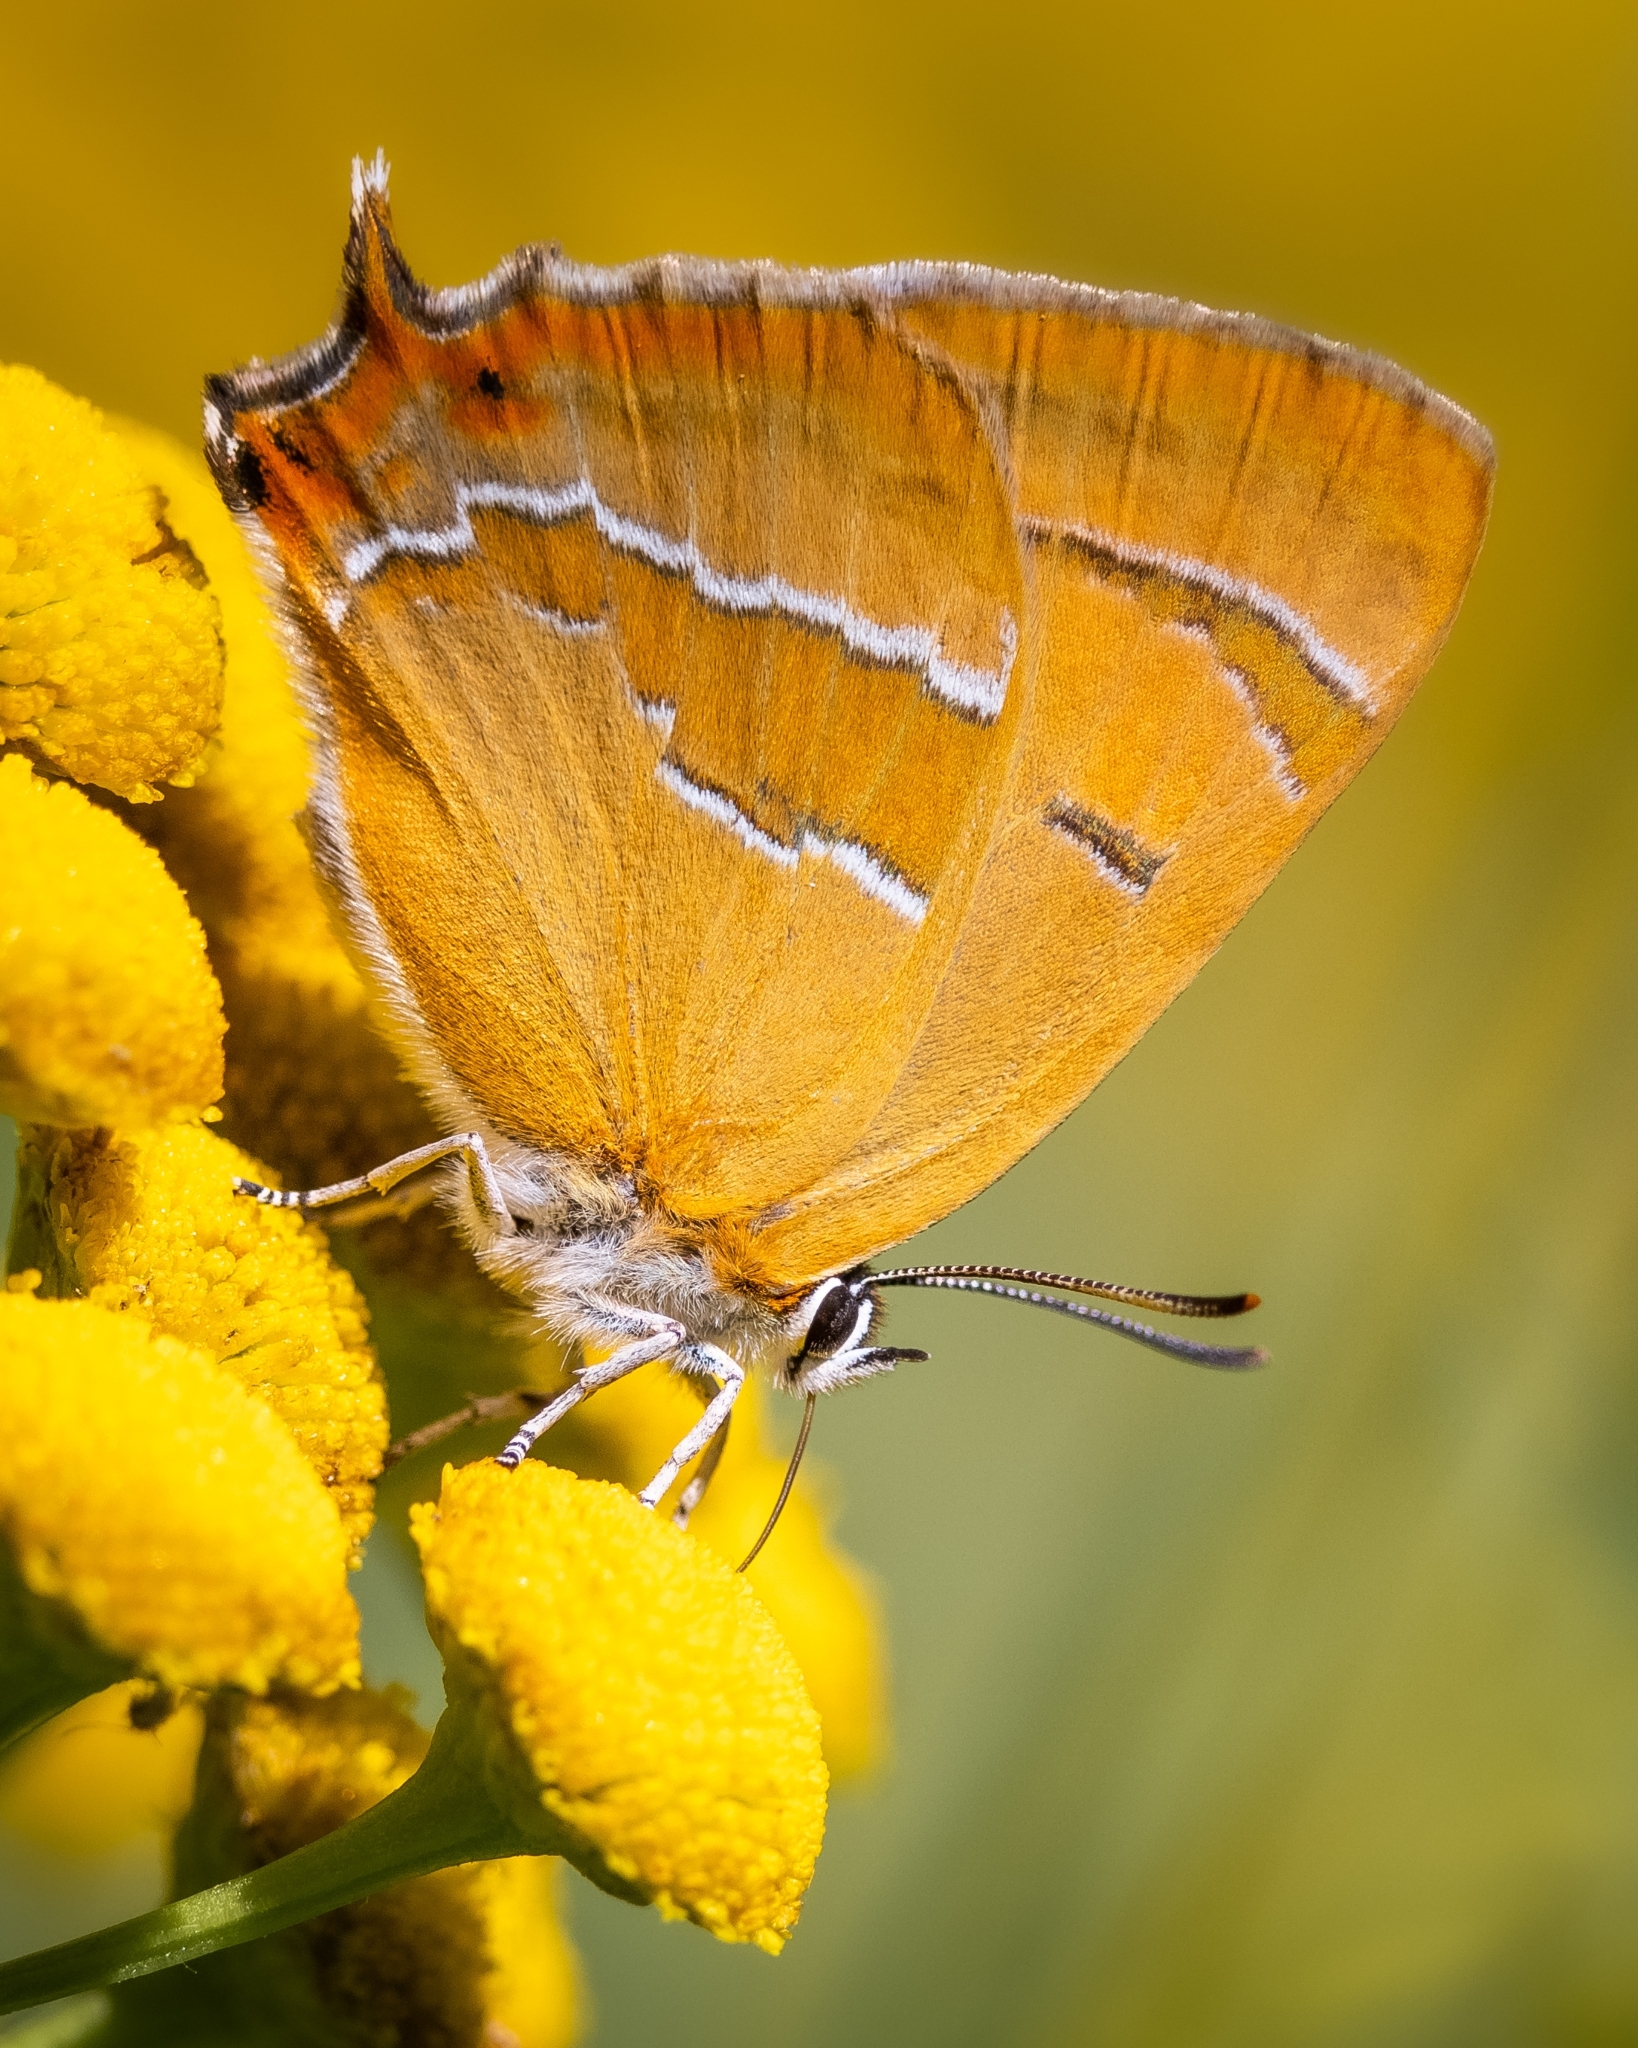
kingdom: Animalia
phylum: Arthropoda
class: Insecta
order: Lepidoptera
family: Lycaenidae
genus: Thecla
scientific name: Thecla betulae
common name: Brown hairstreak
